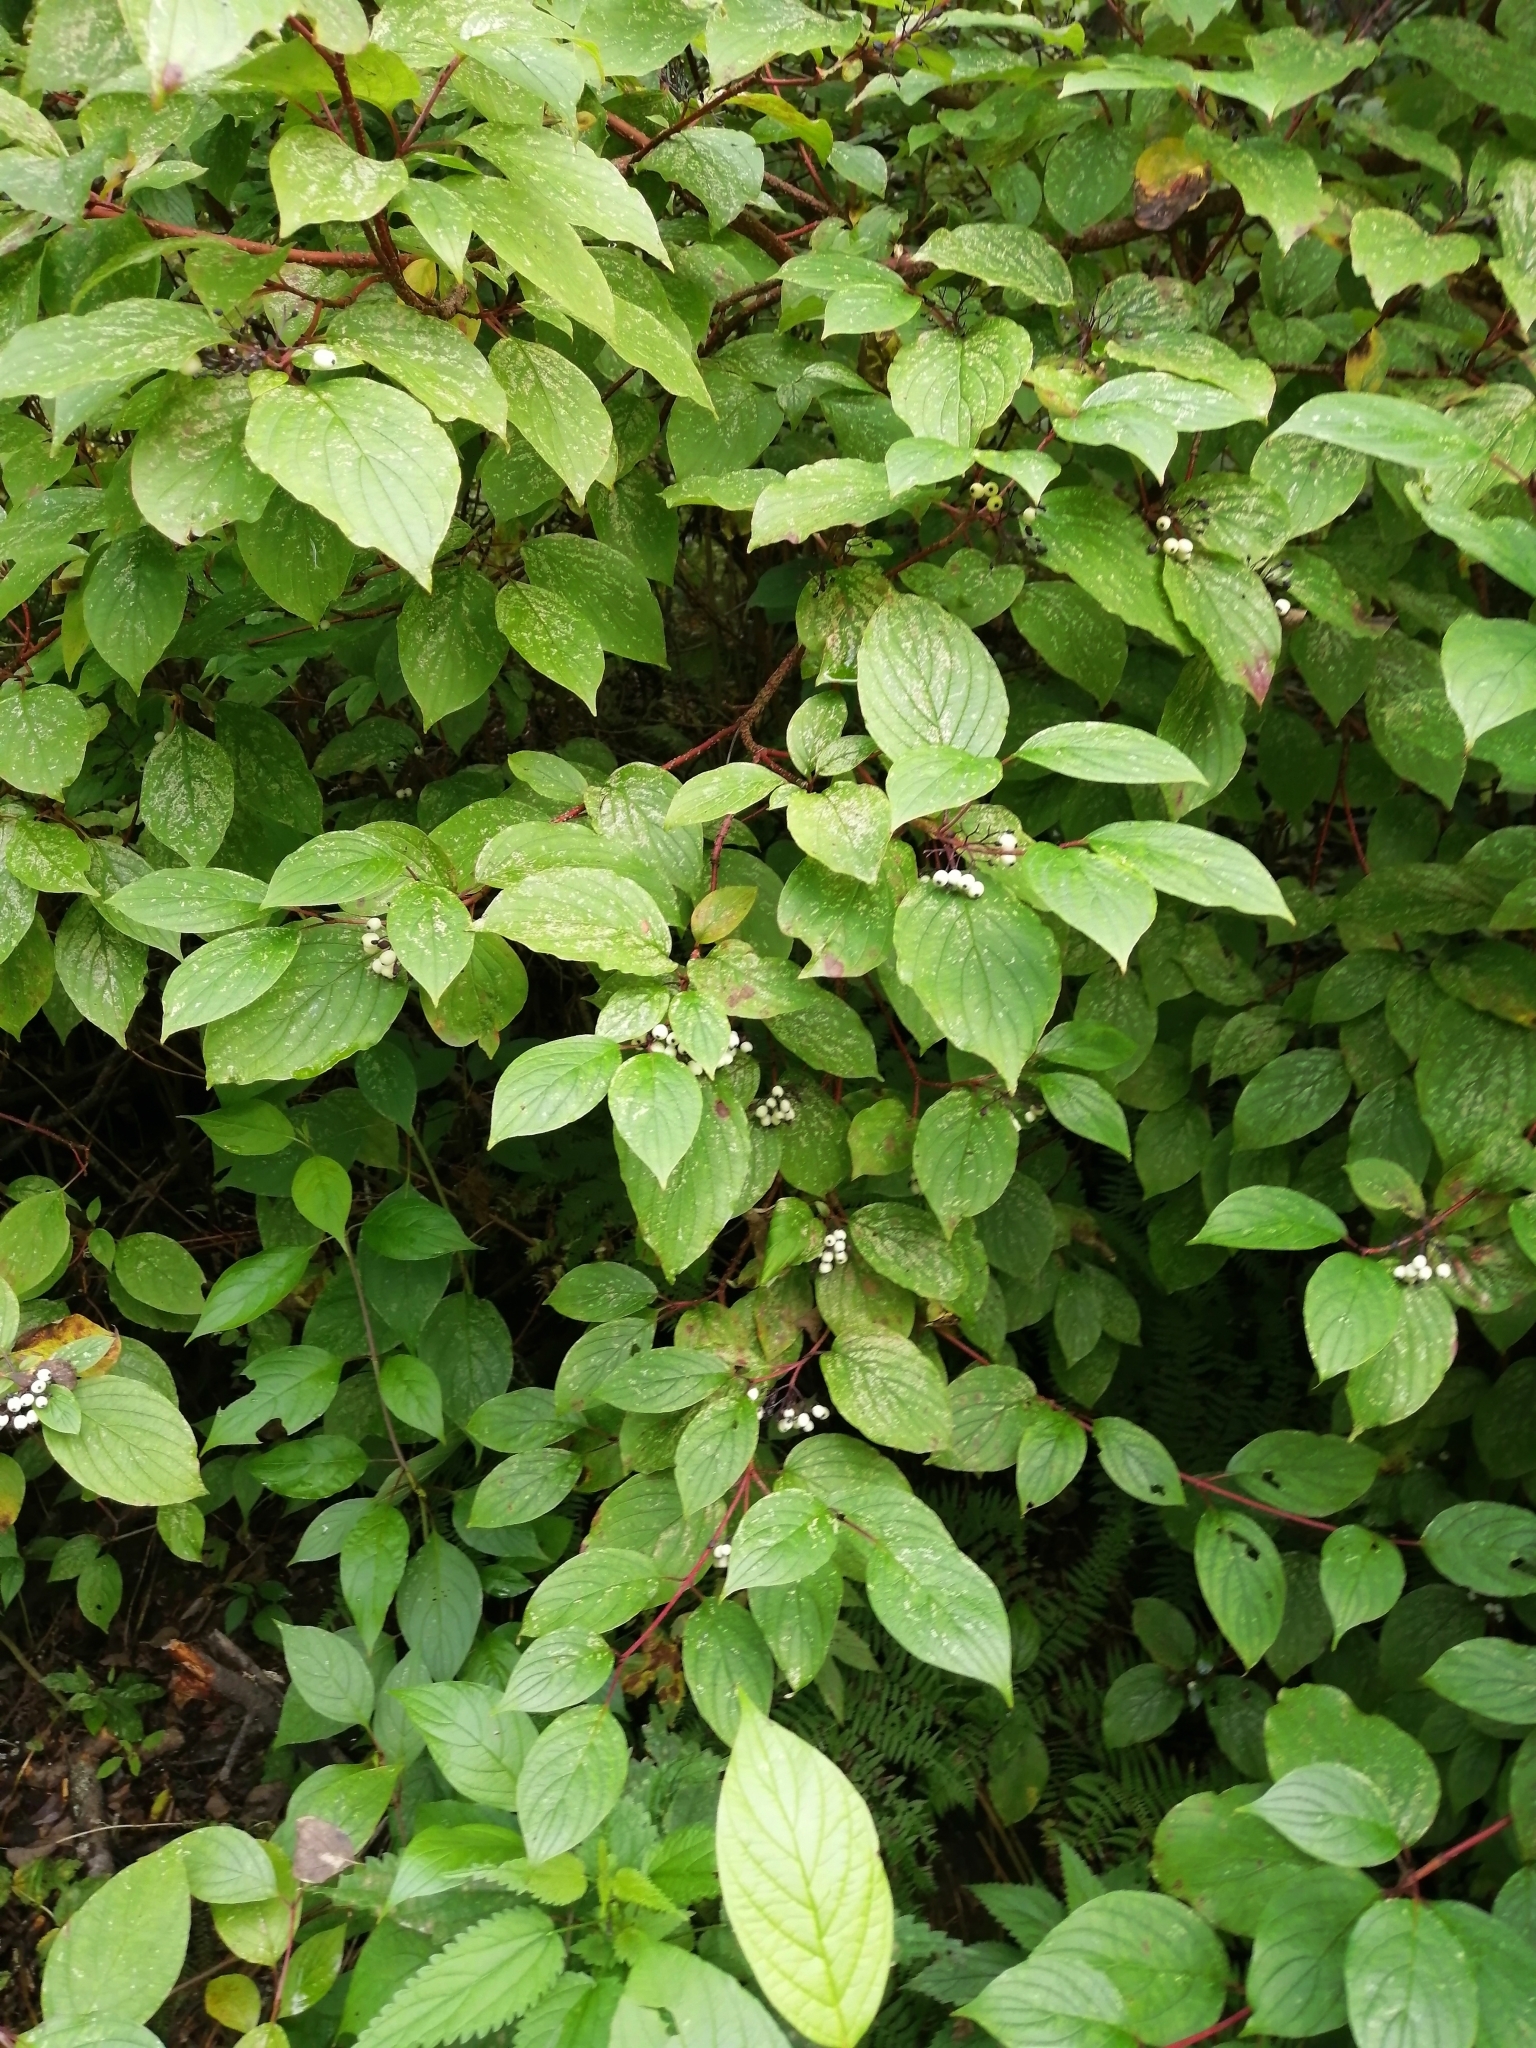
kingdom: Plantae
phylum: Tracheophyta
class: Magnoliopsida
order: Cornales
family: Cornaceae
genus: Cornus
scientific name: Cornus alba
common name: White dogwood
